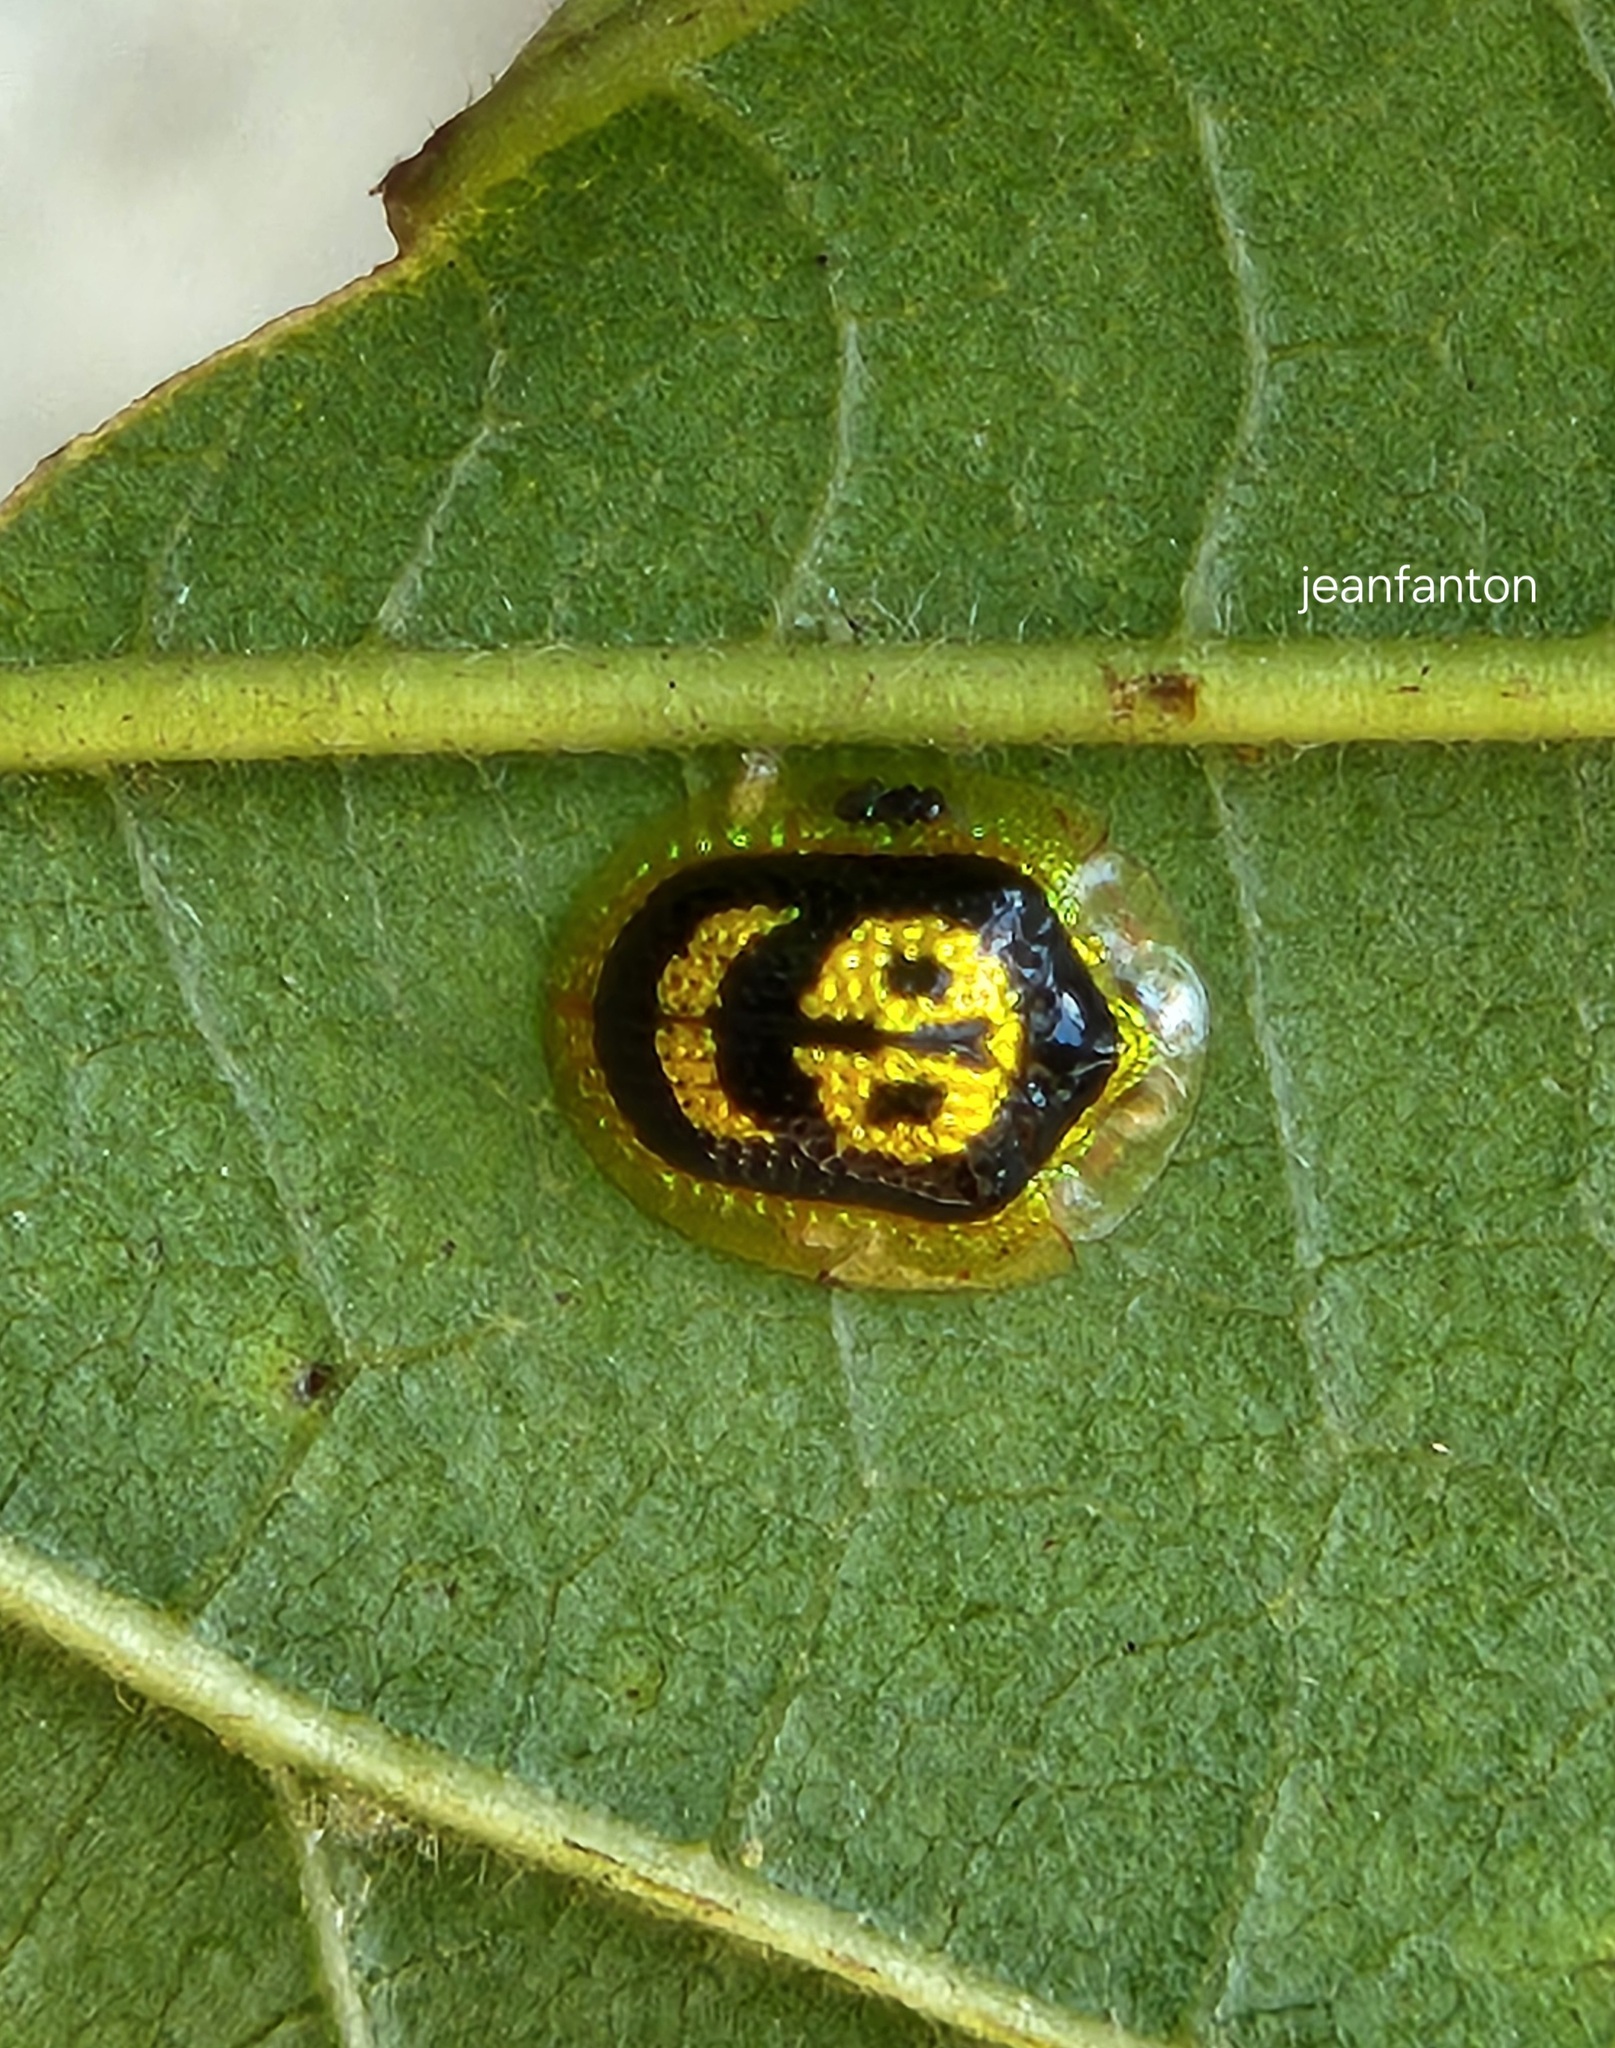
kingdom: Animalia
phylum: Arthropoda
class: Insecta
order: Coleoptera
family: Chrysomelidae
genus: Microctenochira
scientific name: Microctenochira achardi
